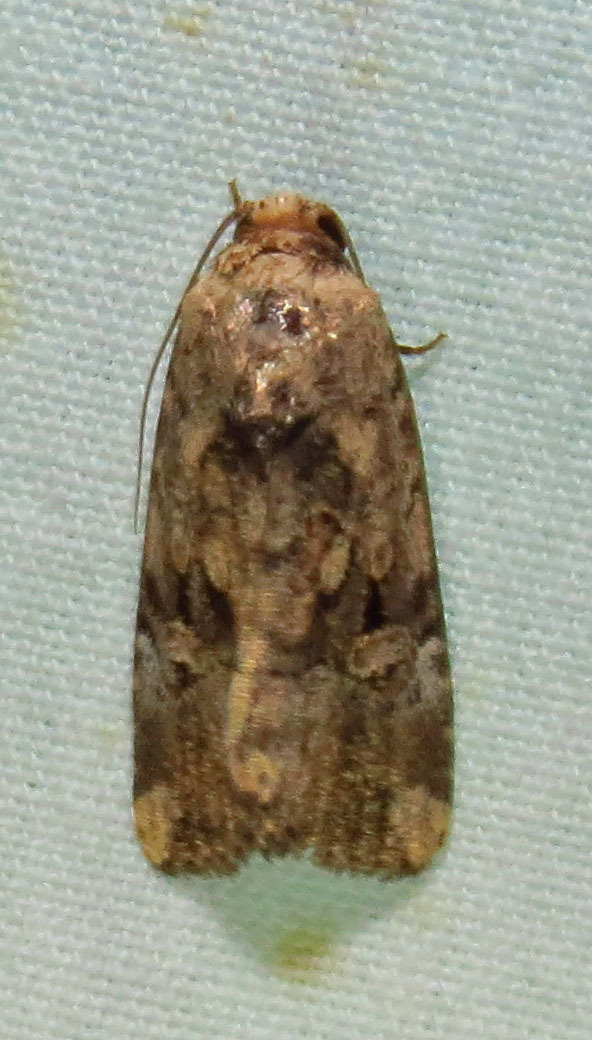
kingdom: Animalia
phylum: Arthropoda
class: Insecta
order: Lepidoptera
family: Noctuidae
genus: Elaphria
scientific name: Elaphria chalcedonia
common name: Chalcedony midget
